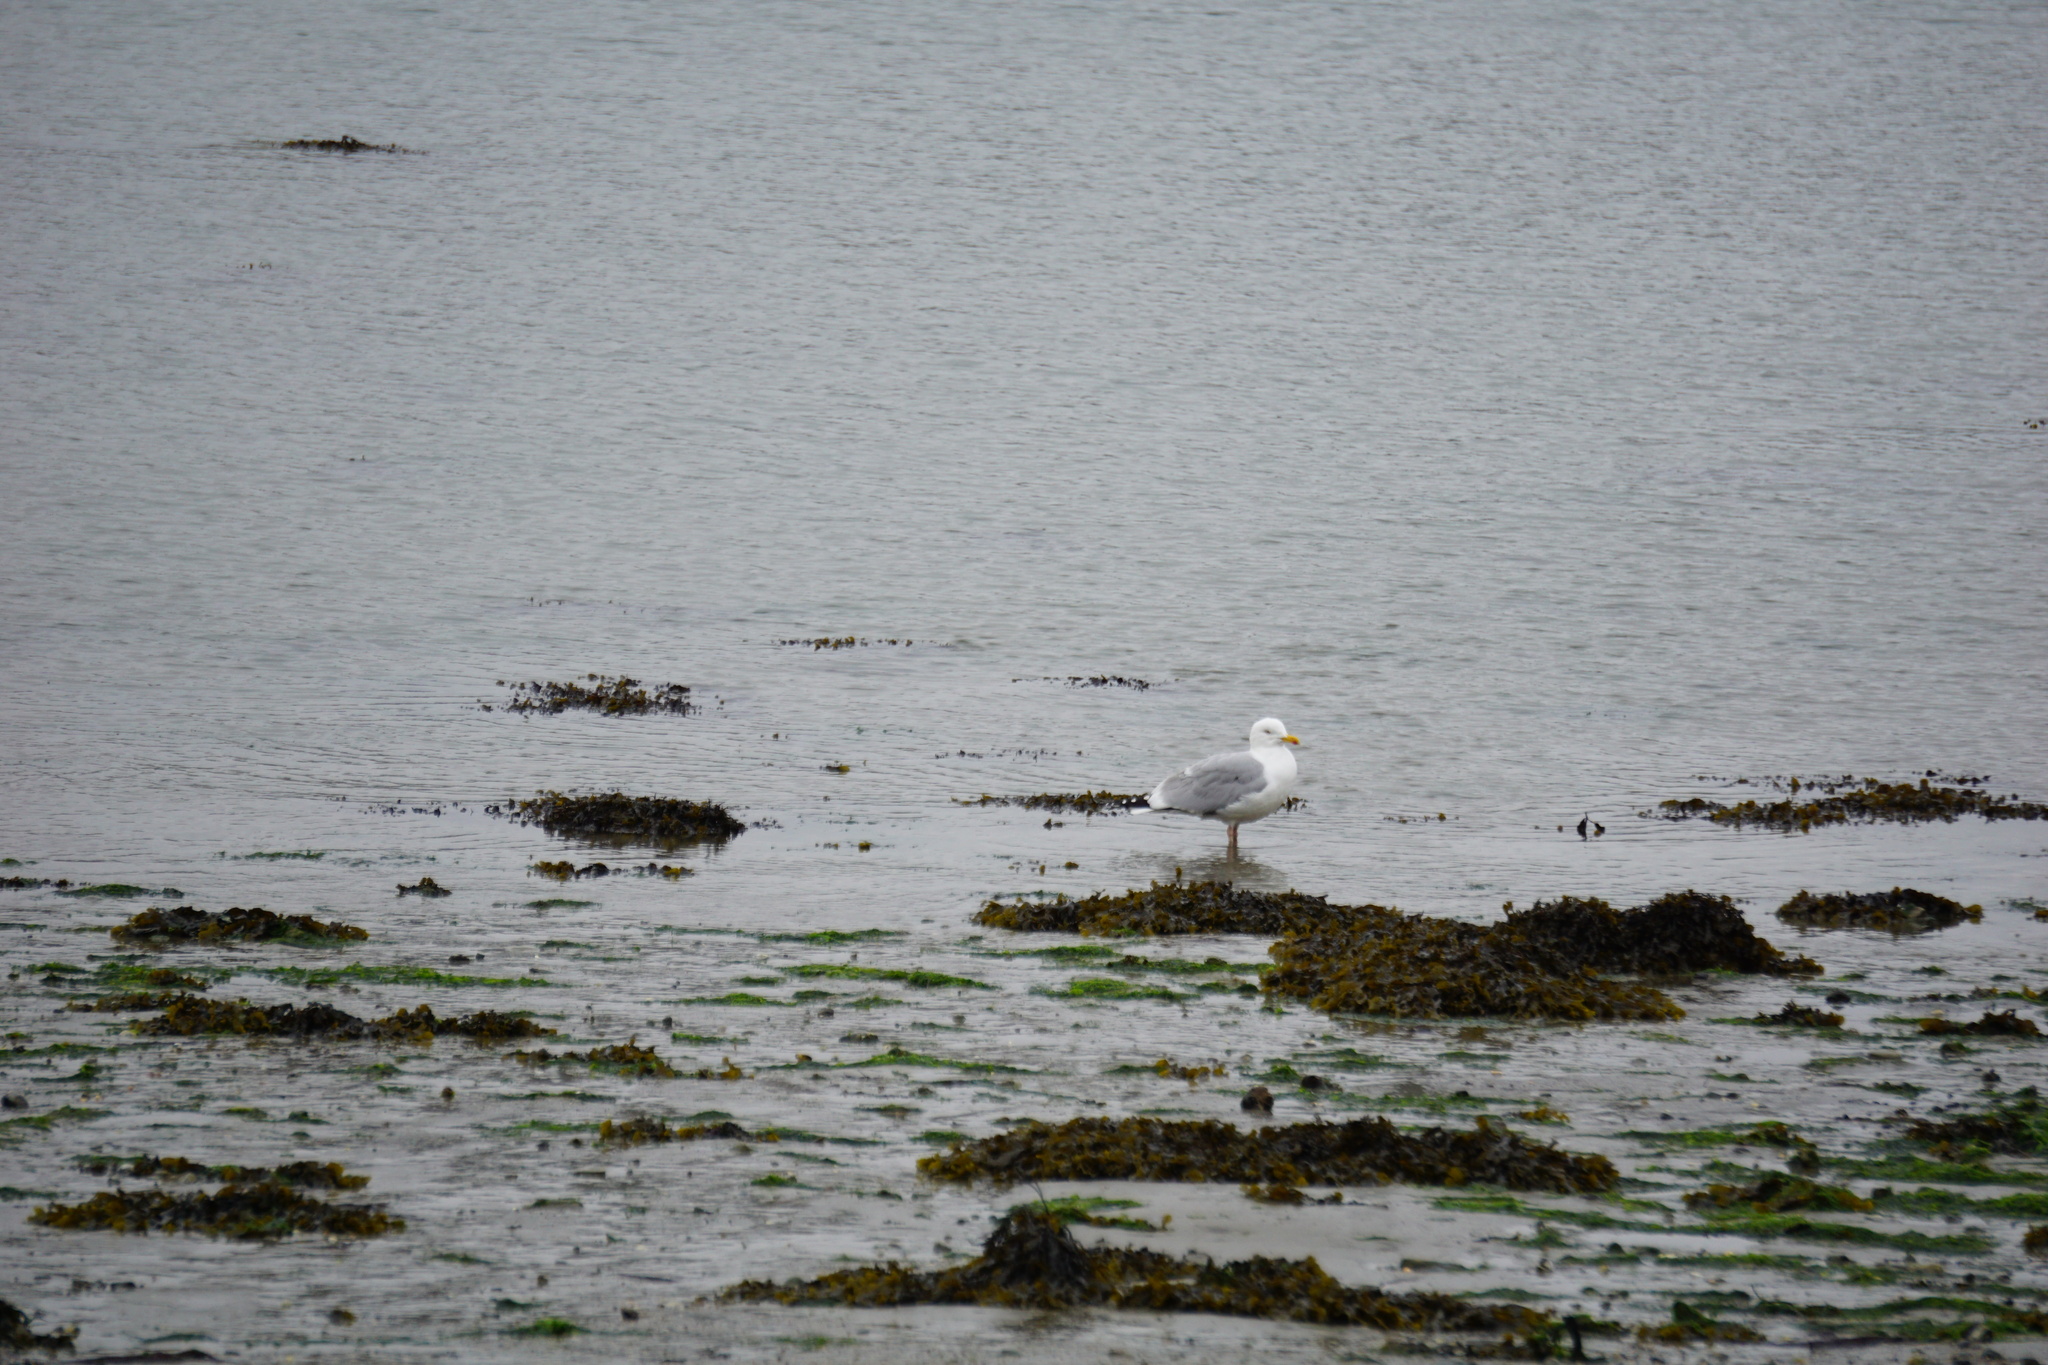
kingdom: Animalia
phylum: Chordata
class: Aves
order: Charadriiformes
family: Laridae
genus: Larus
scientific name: Larus argentatus
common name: Herring gull
